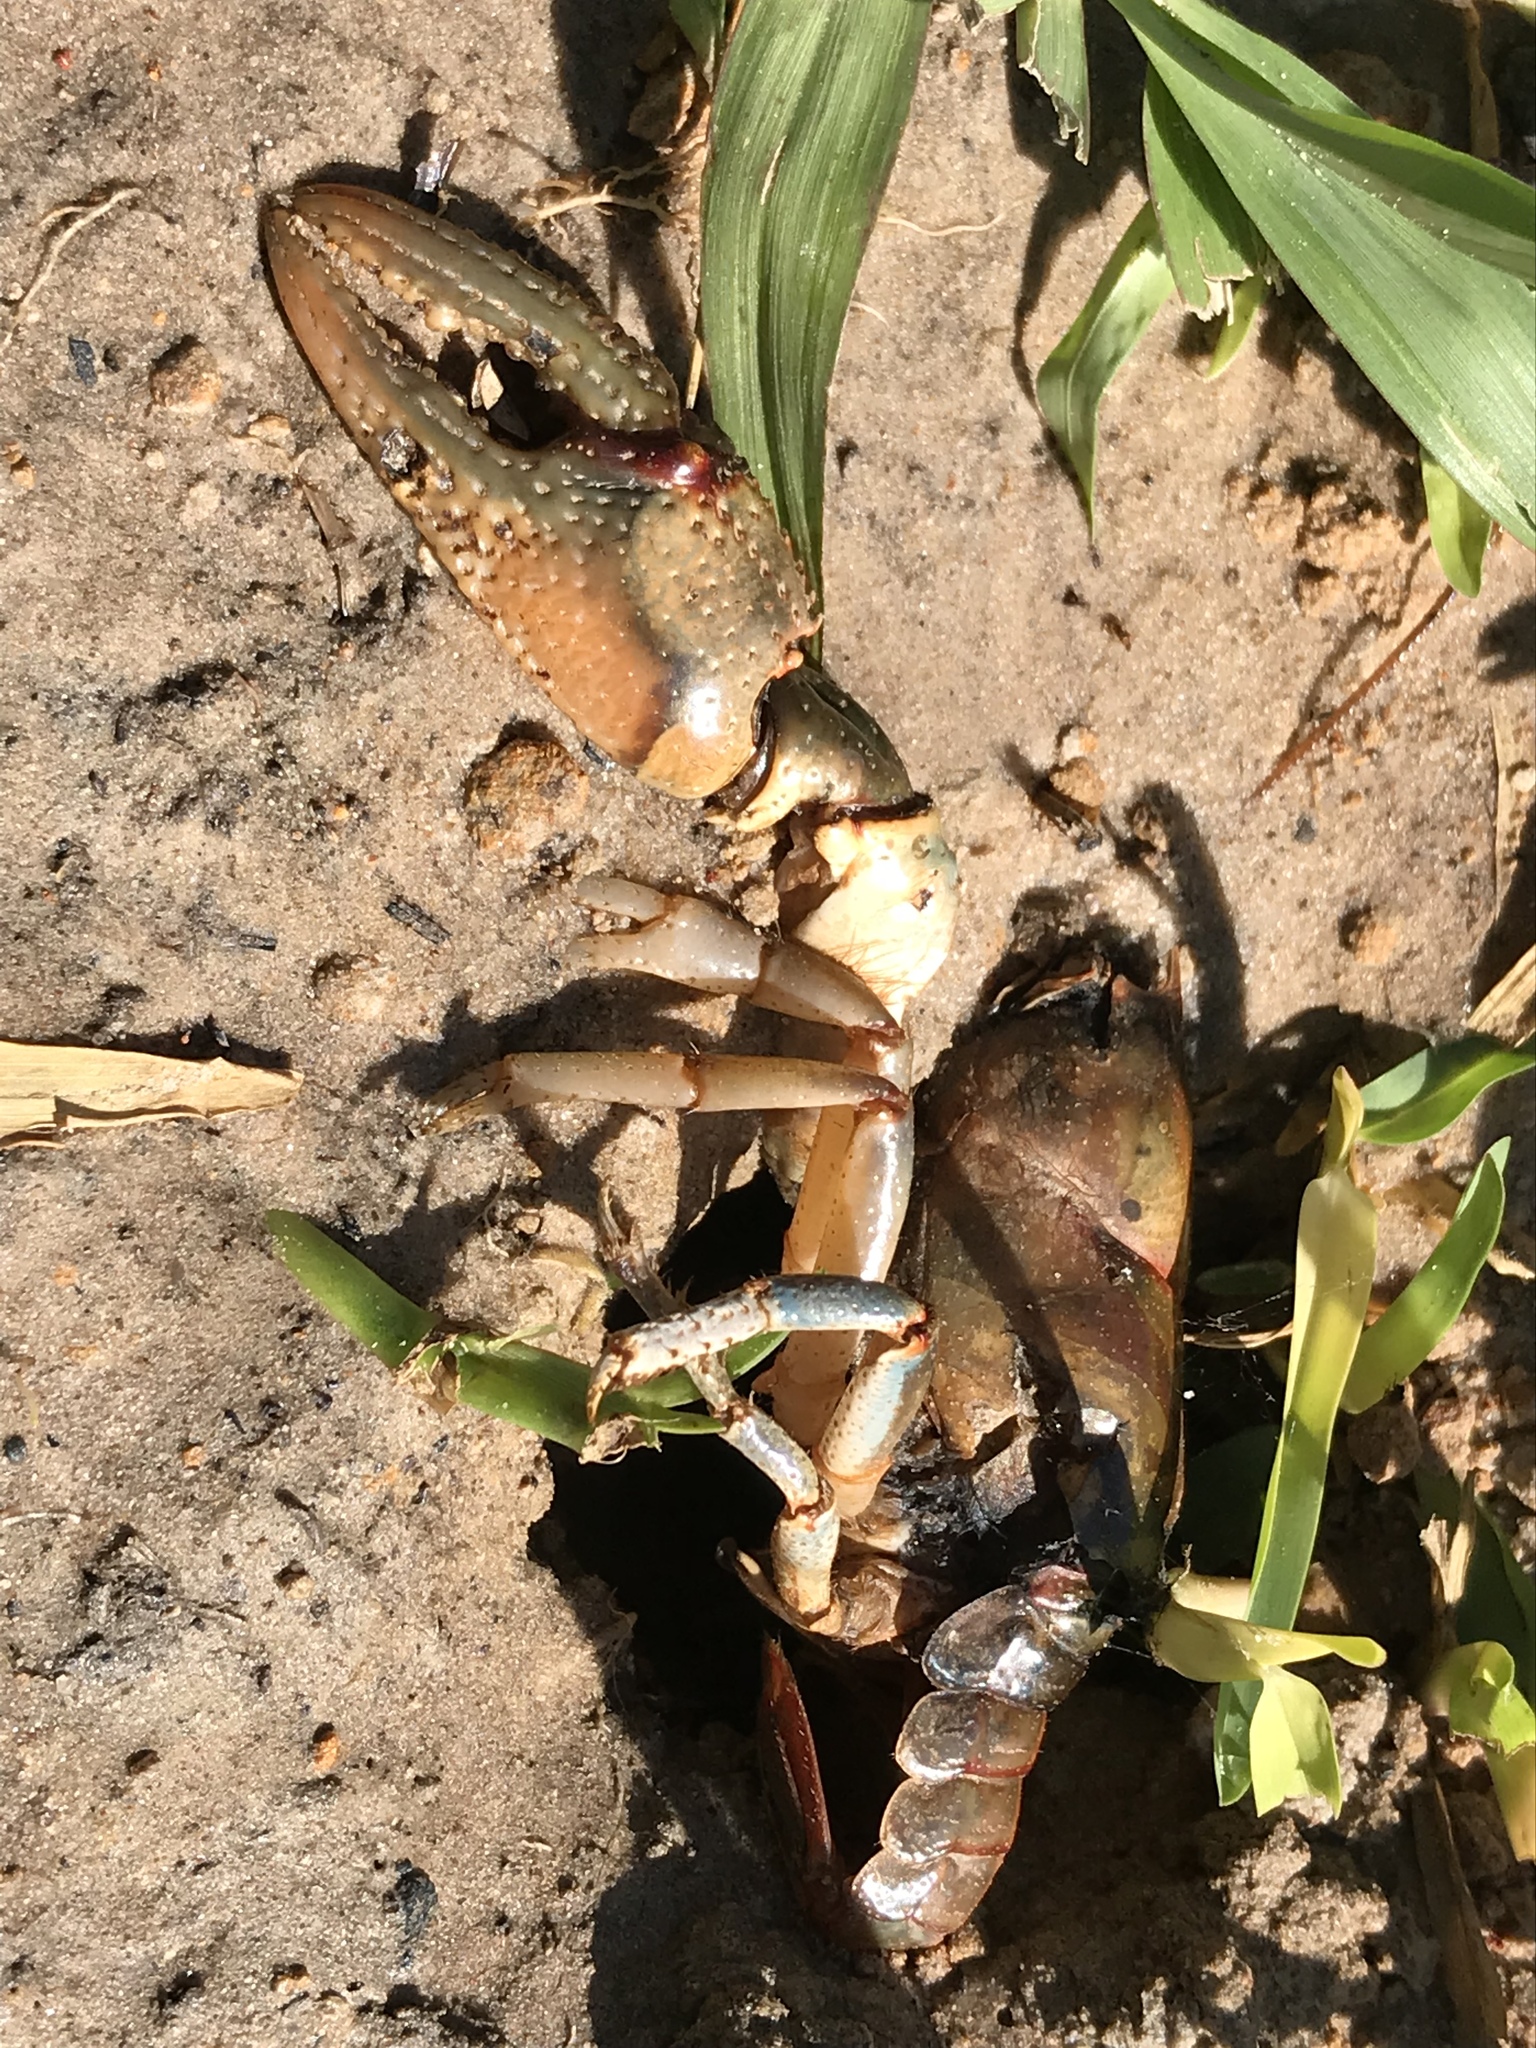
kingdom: Animalia
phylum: Arthropoda
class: Malacostraca
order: Decapoda
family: Cambaridae
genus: Lacunicambarus
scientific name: Lacunicambarus ludovicianus
